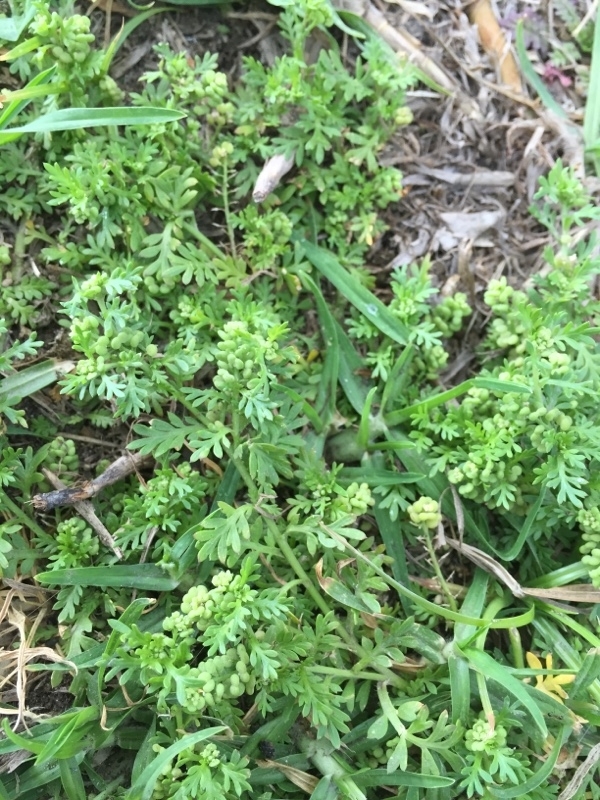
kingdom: Plantae
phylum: Tracheophyta
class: Magnoliopsida
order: Brassicales
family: Brassicaceae
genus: Lepidium
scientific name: Lepidium didymum
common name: Lesser swinecress
